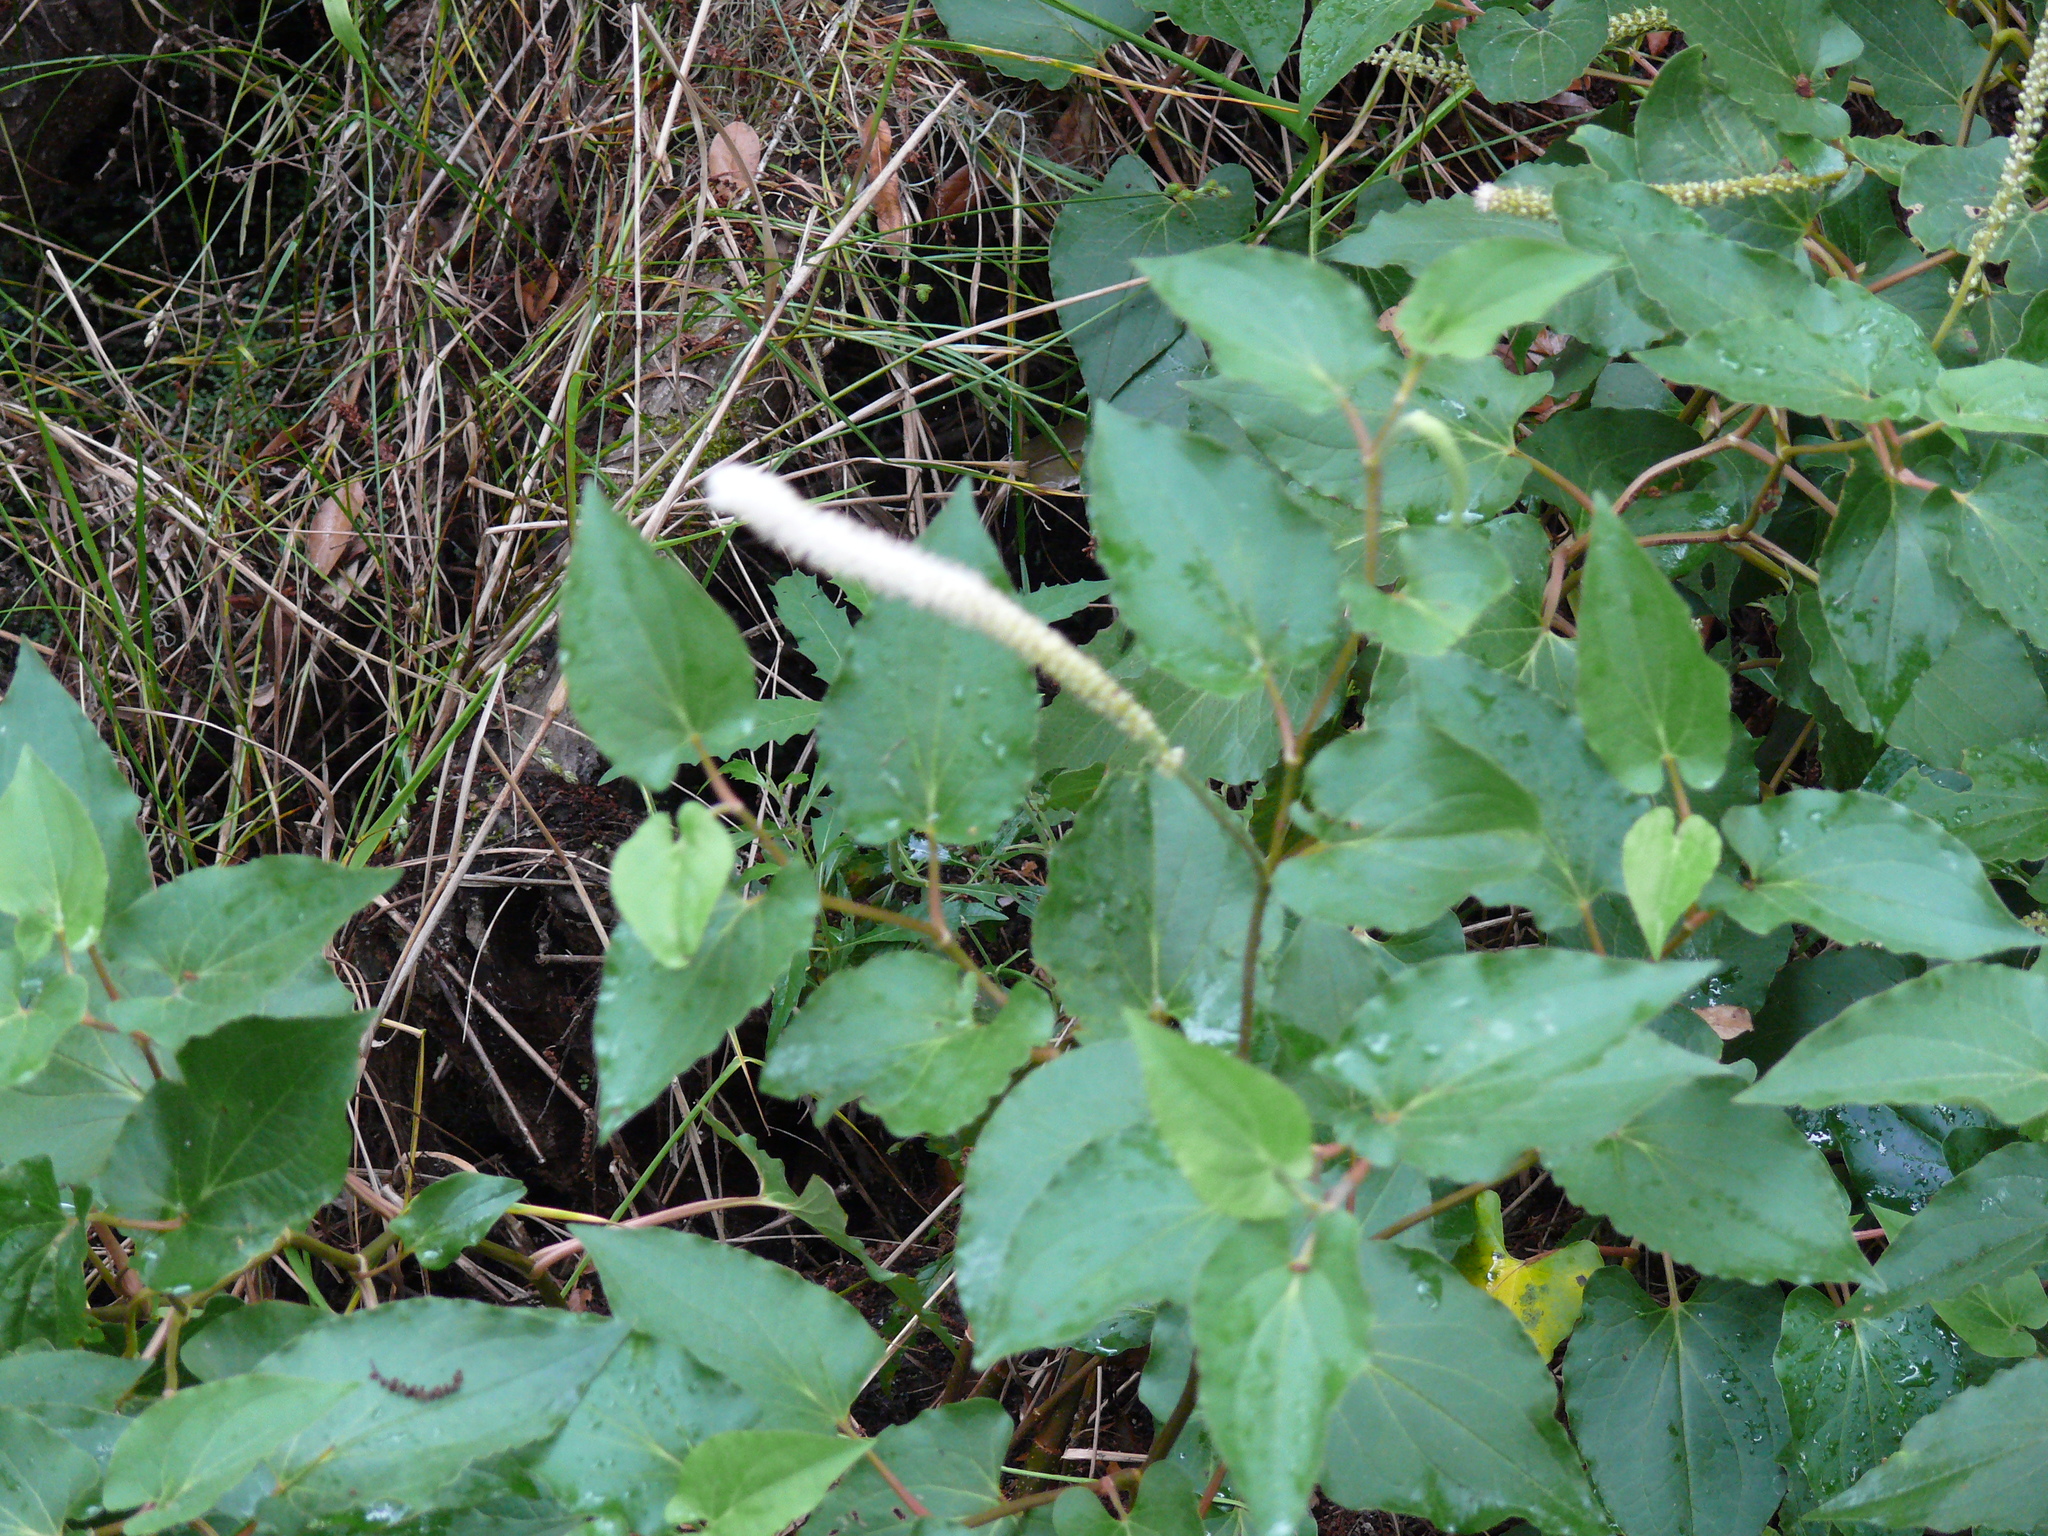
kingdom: Plantae
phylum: Tracheophyta
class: Magnoliopsida
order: Piperales
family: Saururaceae
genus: Saururus
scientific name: Saururus cernuus
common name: Lizard's-tail
